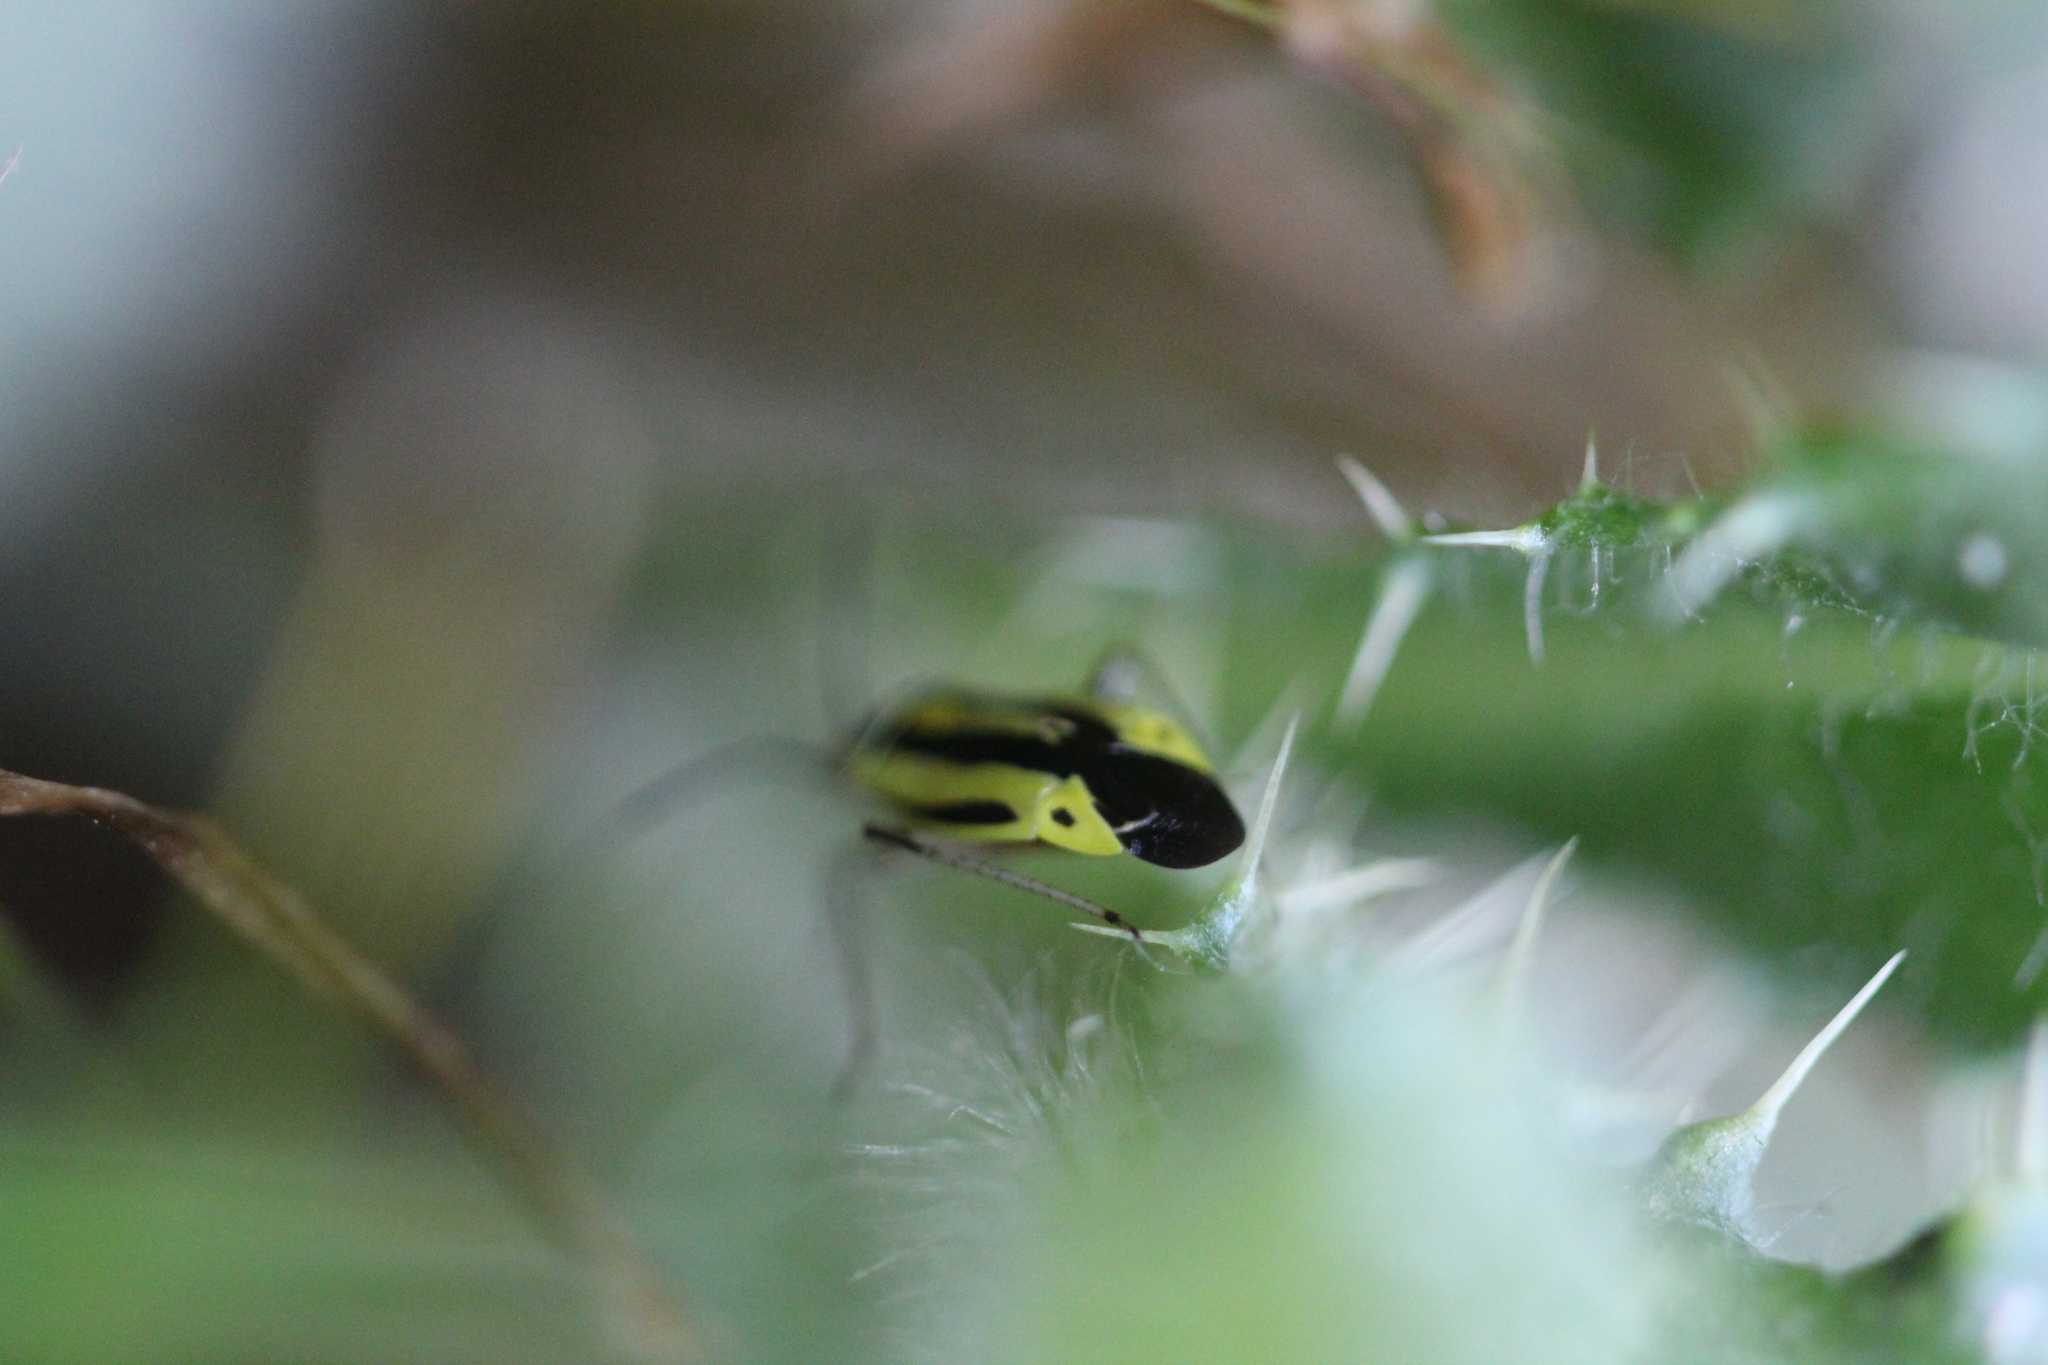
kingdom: Animalia
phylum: Arthropoda
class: Insecta
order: Hemiptera
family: Miridae
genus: Poecilocapsus
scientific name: Poecilocapsus lineatus
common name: Four-lined plant bug
